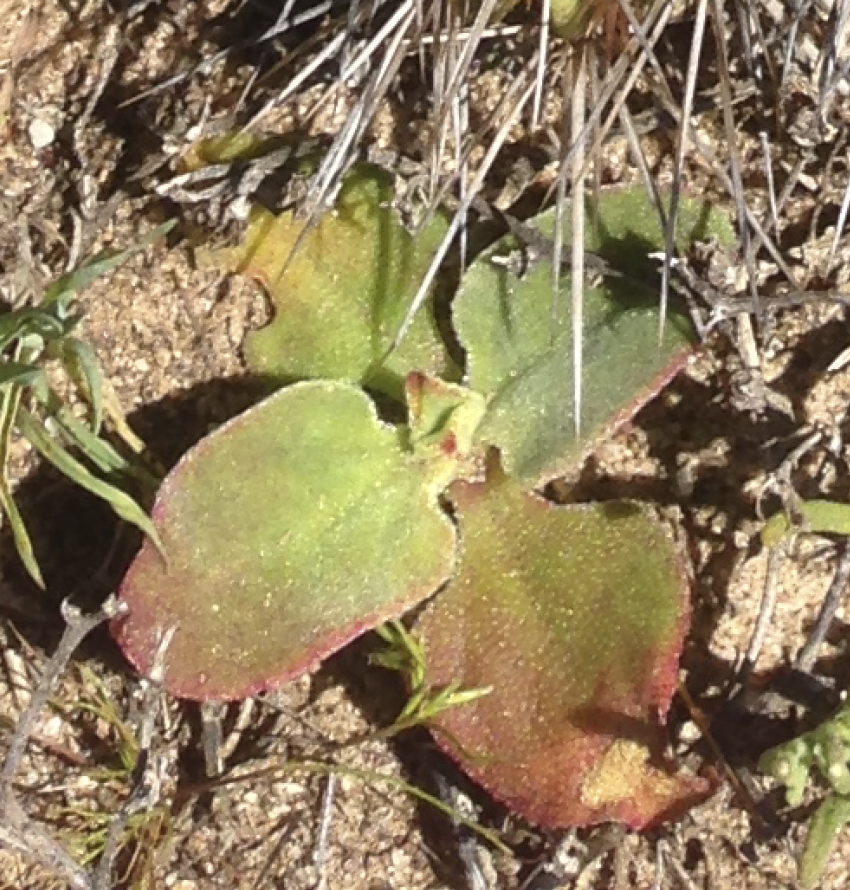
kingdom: Plantae
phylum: Tracheophyta
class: Magnoliopsida
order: Caryophyllales
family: Aizoaceae
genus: Mesembryanthemum
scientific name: Mesembryanthemum crystallinum
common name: Common iceplant
